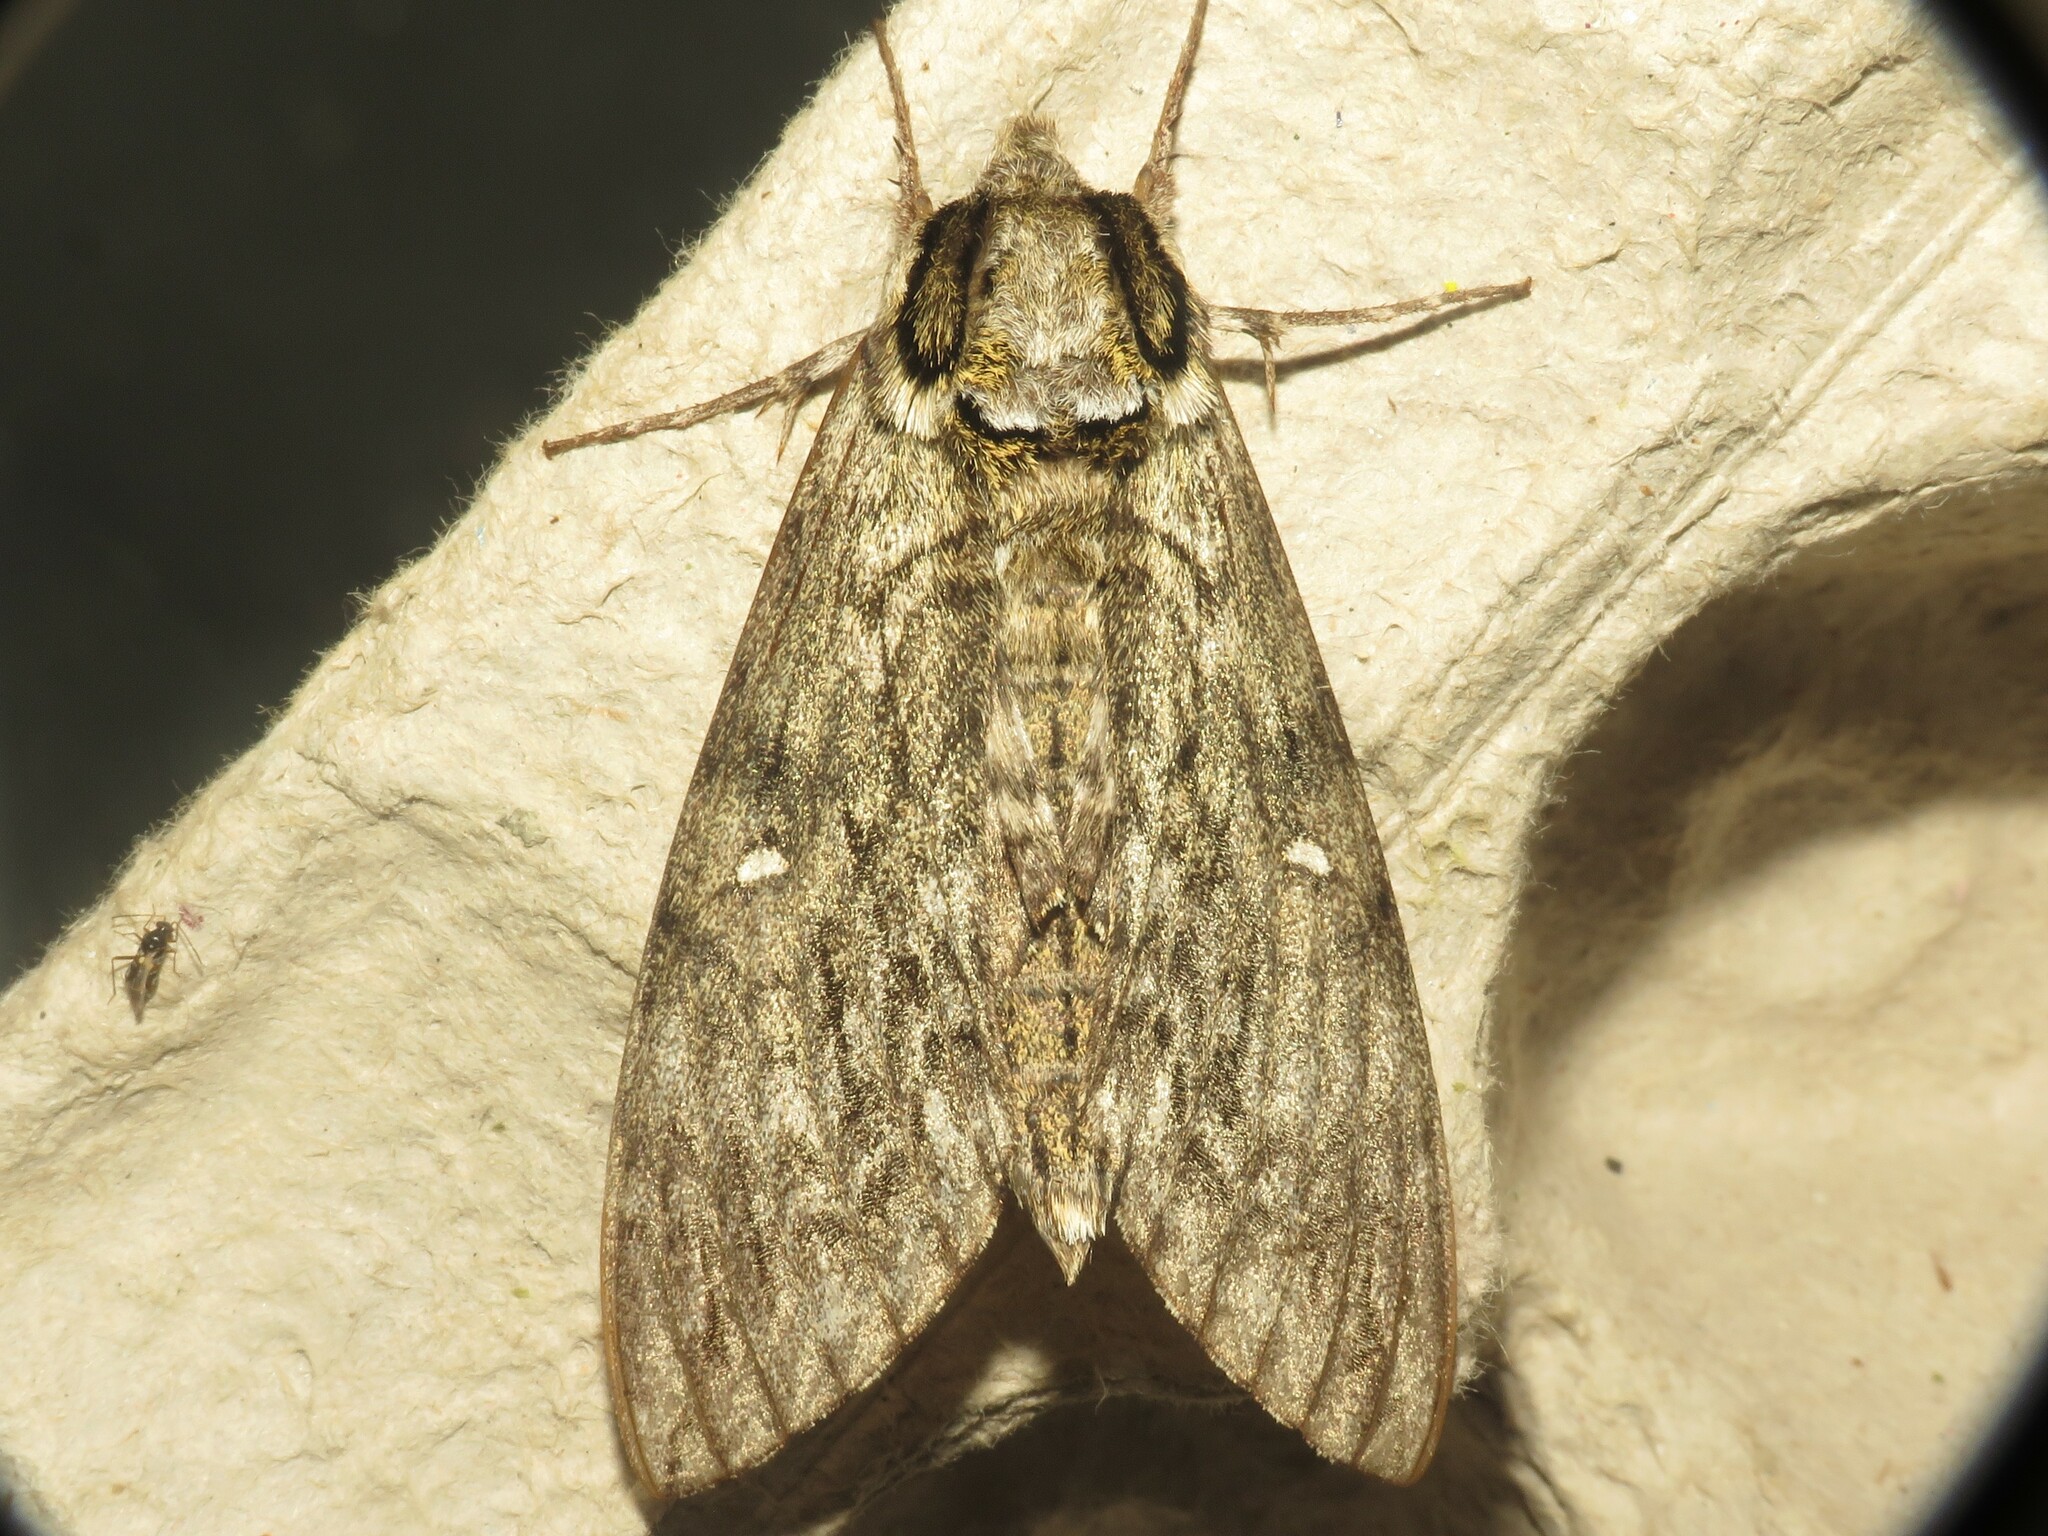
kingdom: Animalia
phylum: Arthropoda
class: Insecta
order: Lepidoptera
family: Sphingidae
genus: Ceratomia
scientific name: Ceratomia undulosa
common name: Waved sphinx
